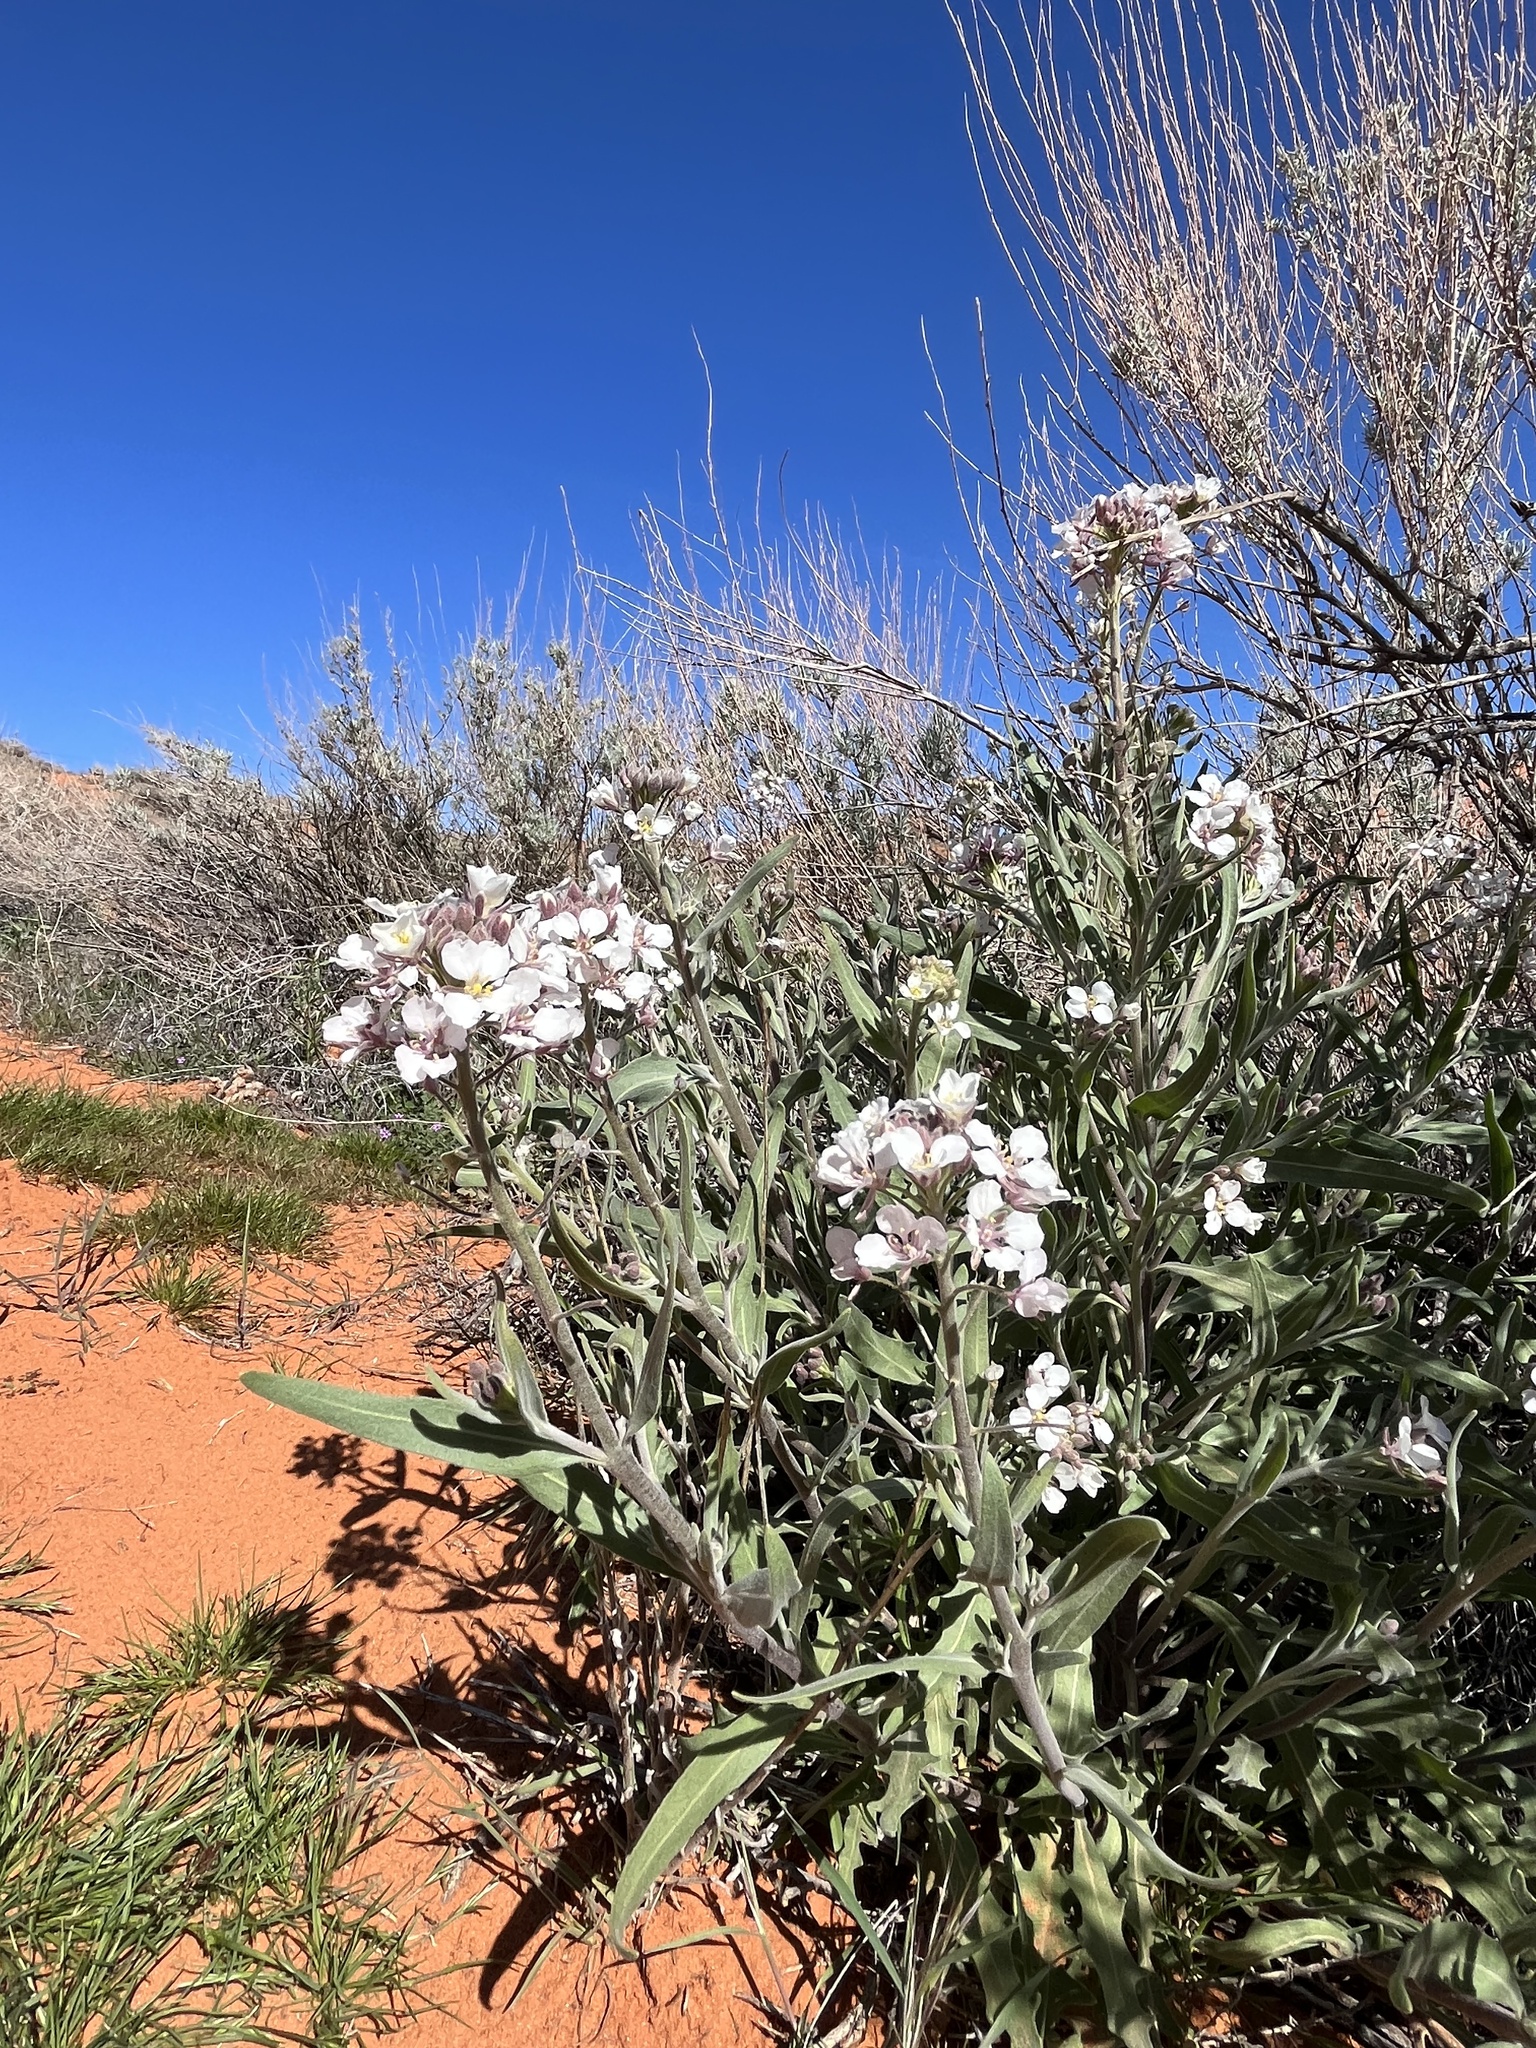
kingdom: Plantae
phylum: Tracheophyta
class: Magnoliopsida
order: Brassicales
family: Brassicaceae
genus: Dimorphocarpa
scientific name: Dimorphocarpa wislizenii
